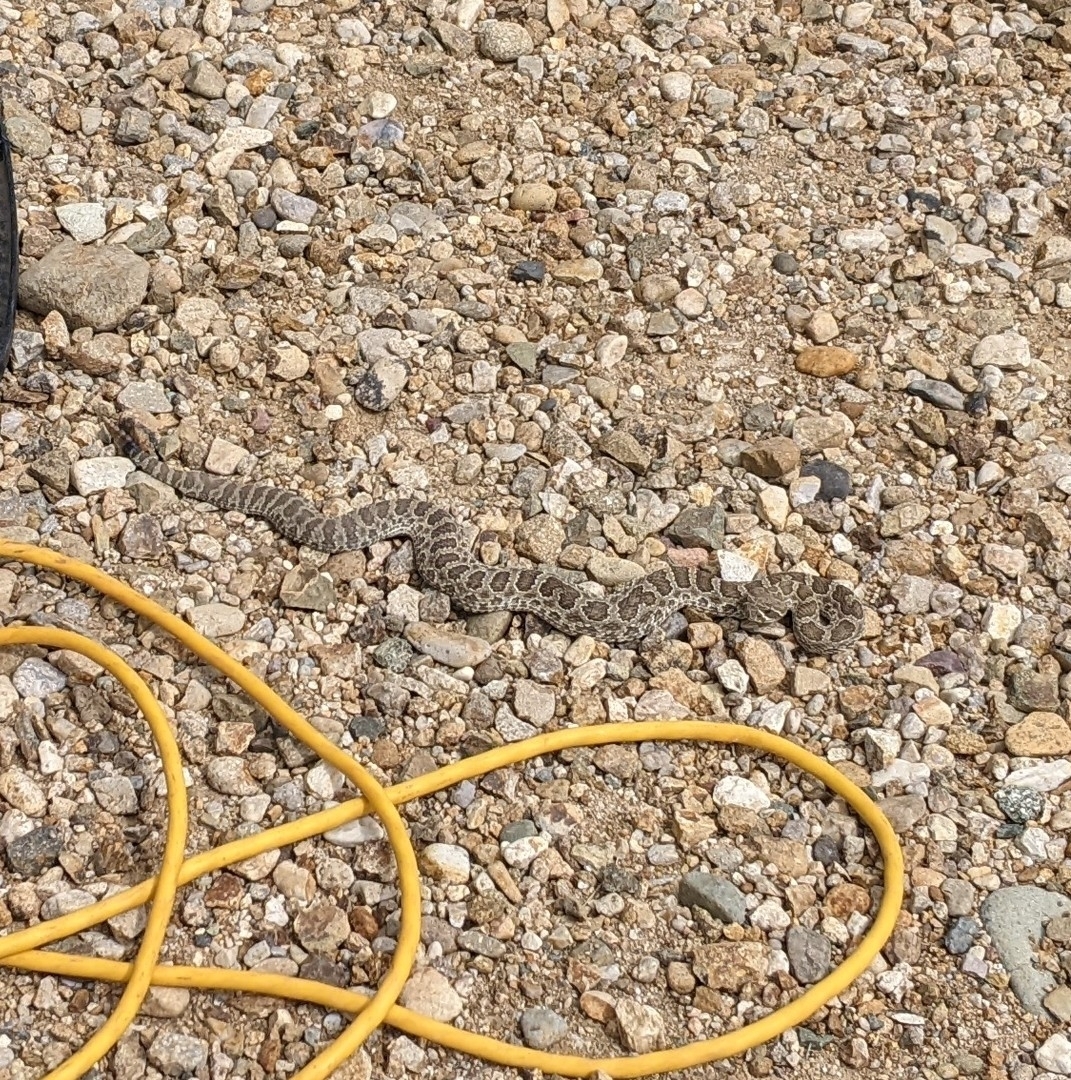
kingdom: Animalia
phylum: Chordata
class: Squamata
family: Viperidae
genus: Crotalus
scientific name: Crotalus viridis
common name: Prairie rattlesnake
